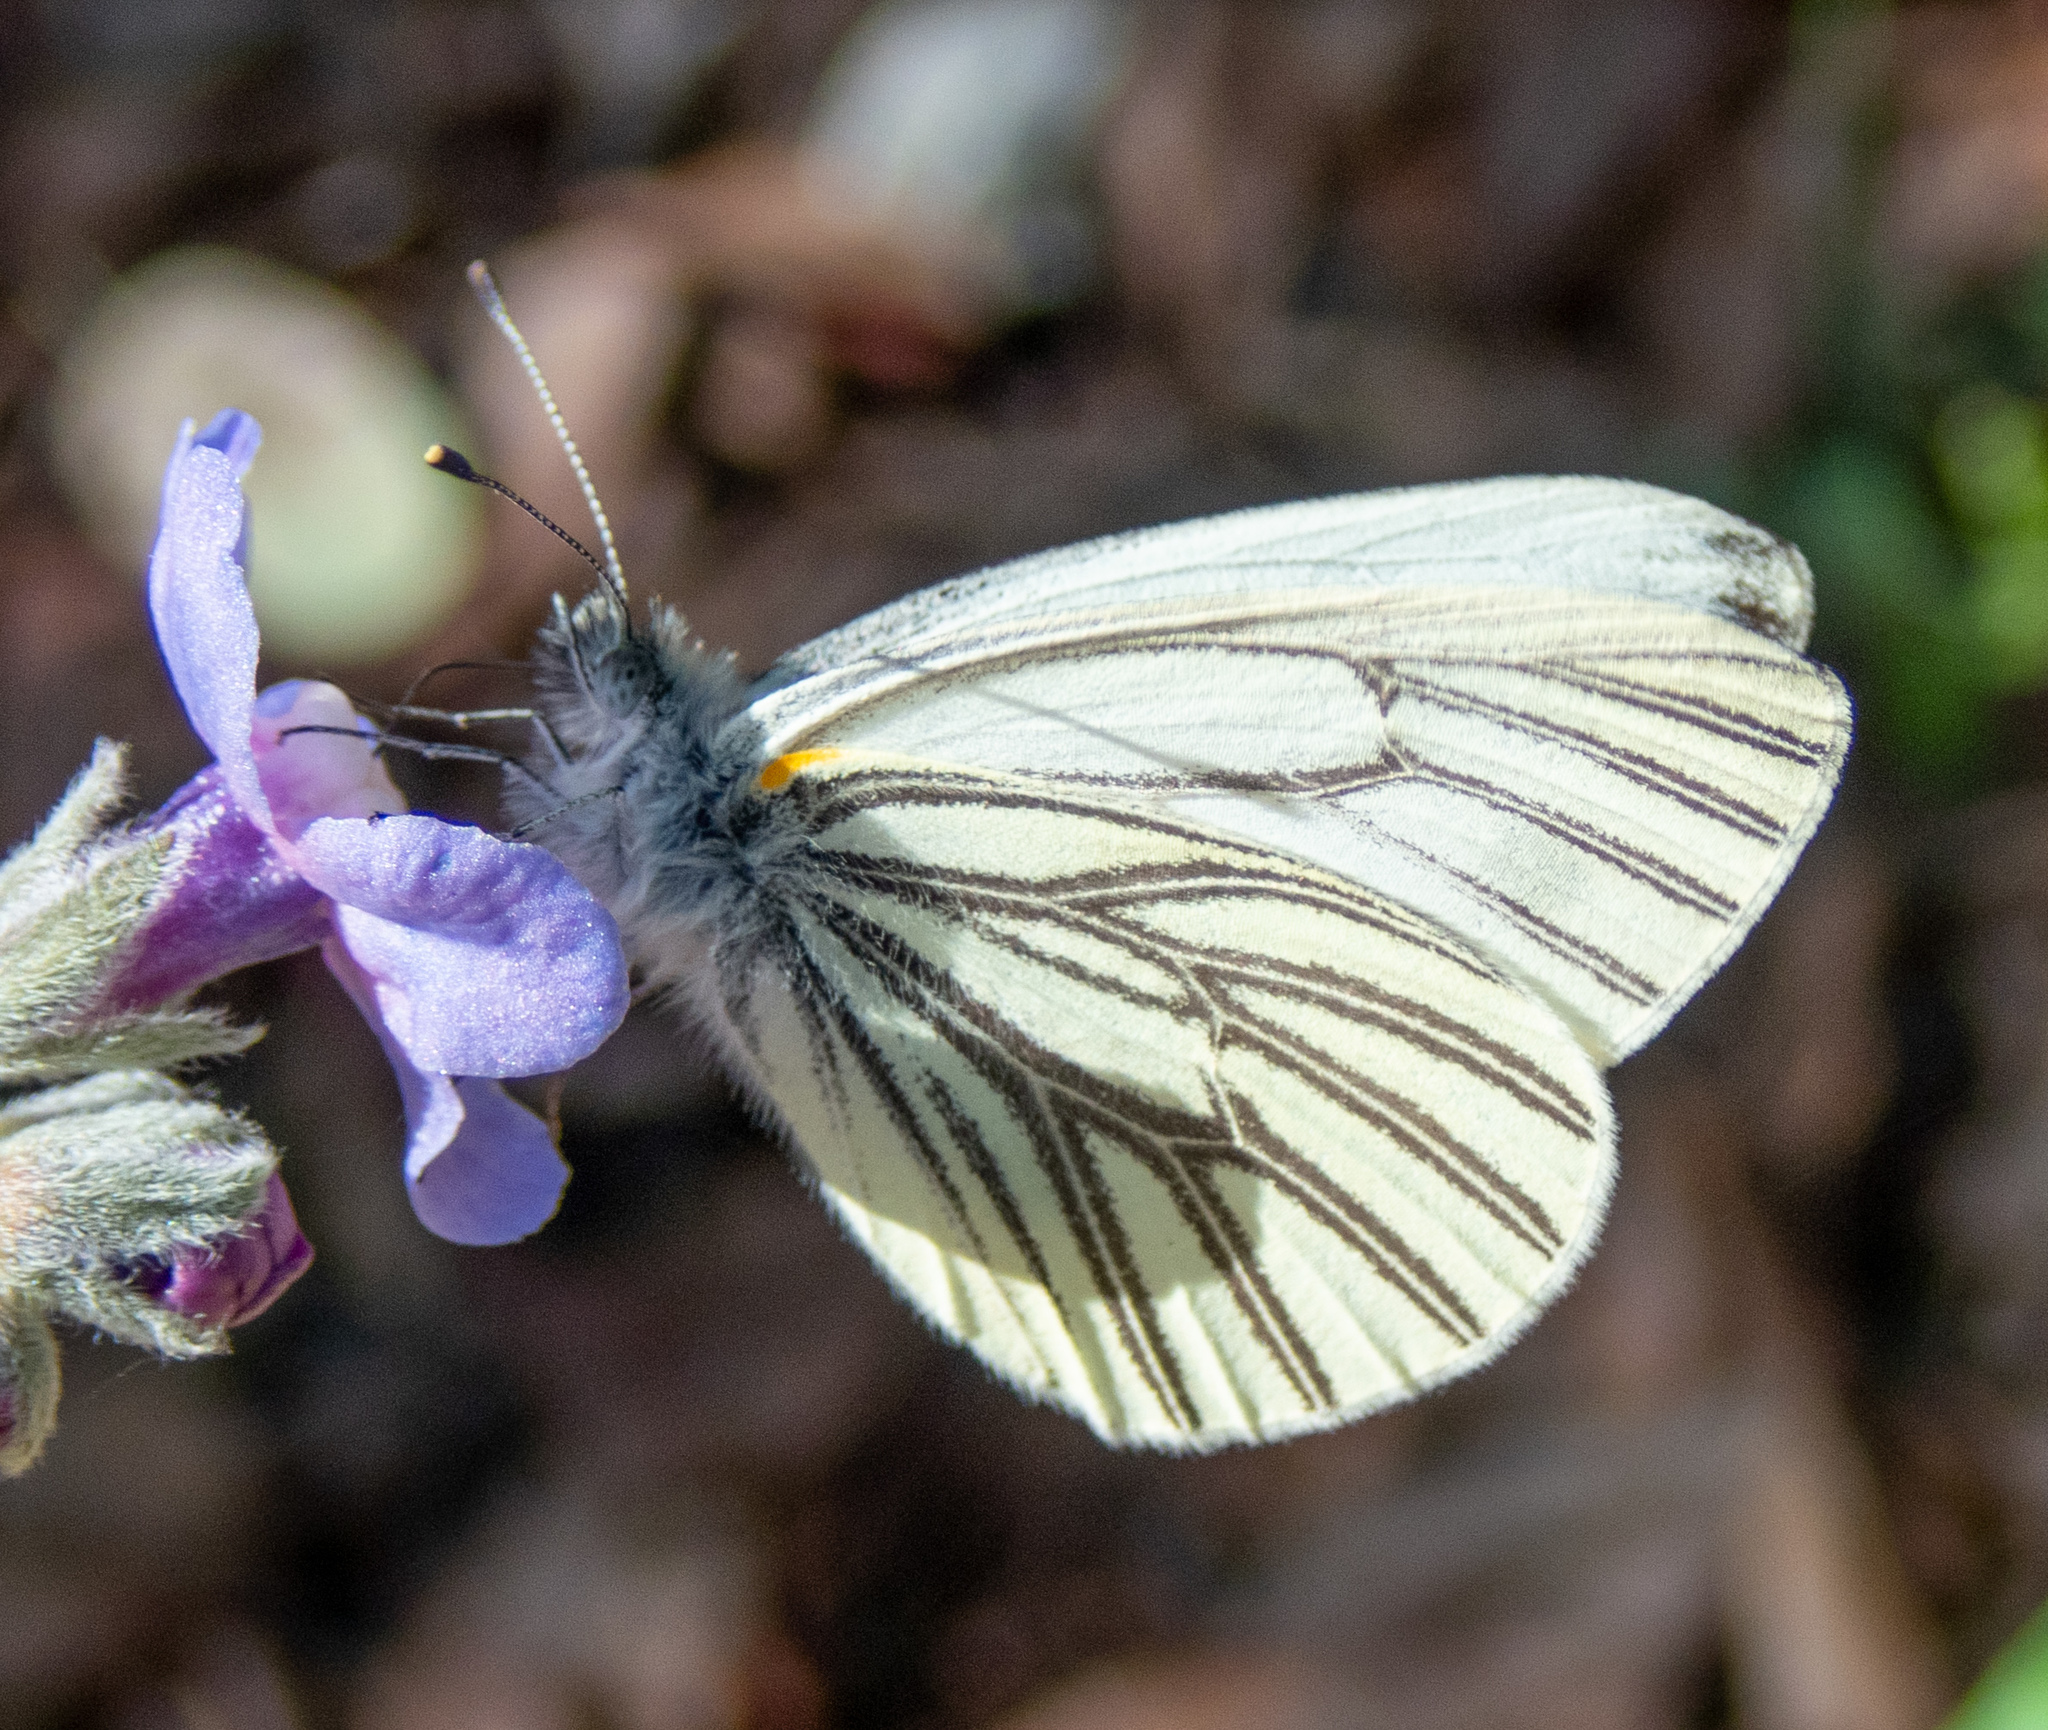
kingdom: Animalia
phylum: Arthropoda
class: Insecta
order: Lepidoptera
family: Pieridae
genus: Pieris
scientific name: Pieris marginalis
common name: Margined white
